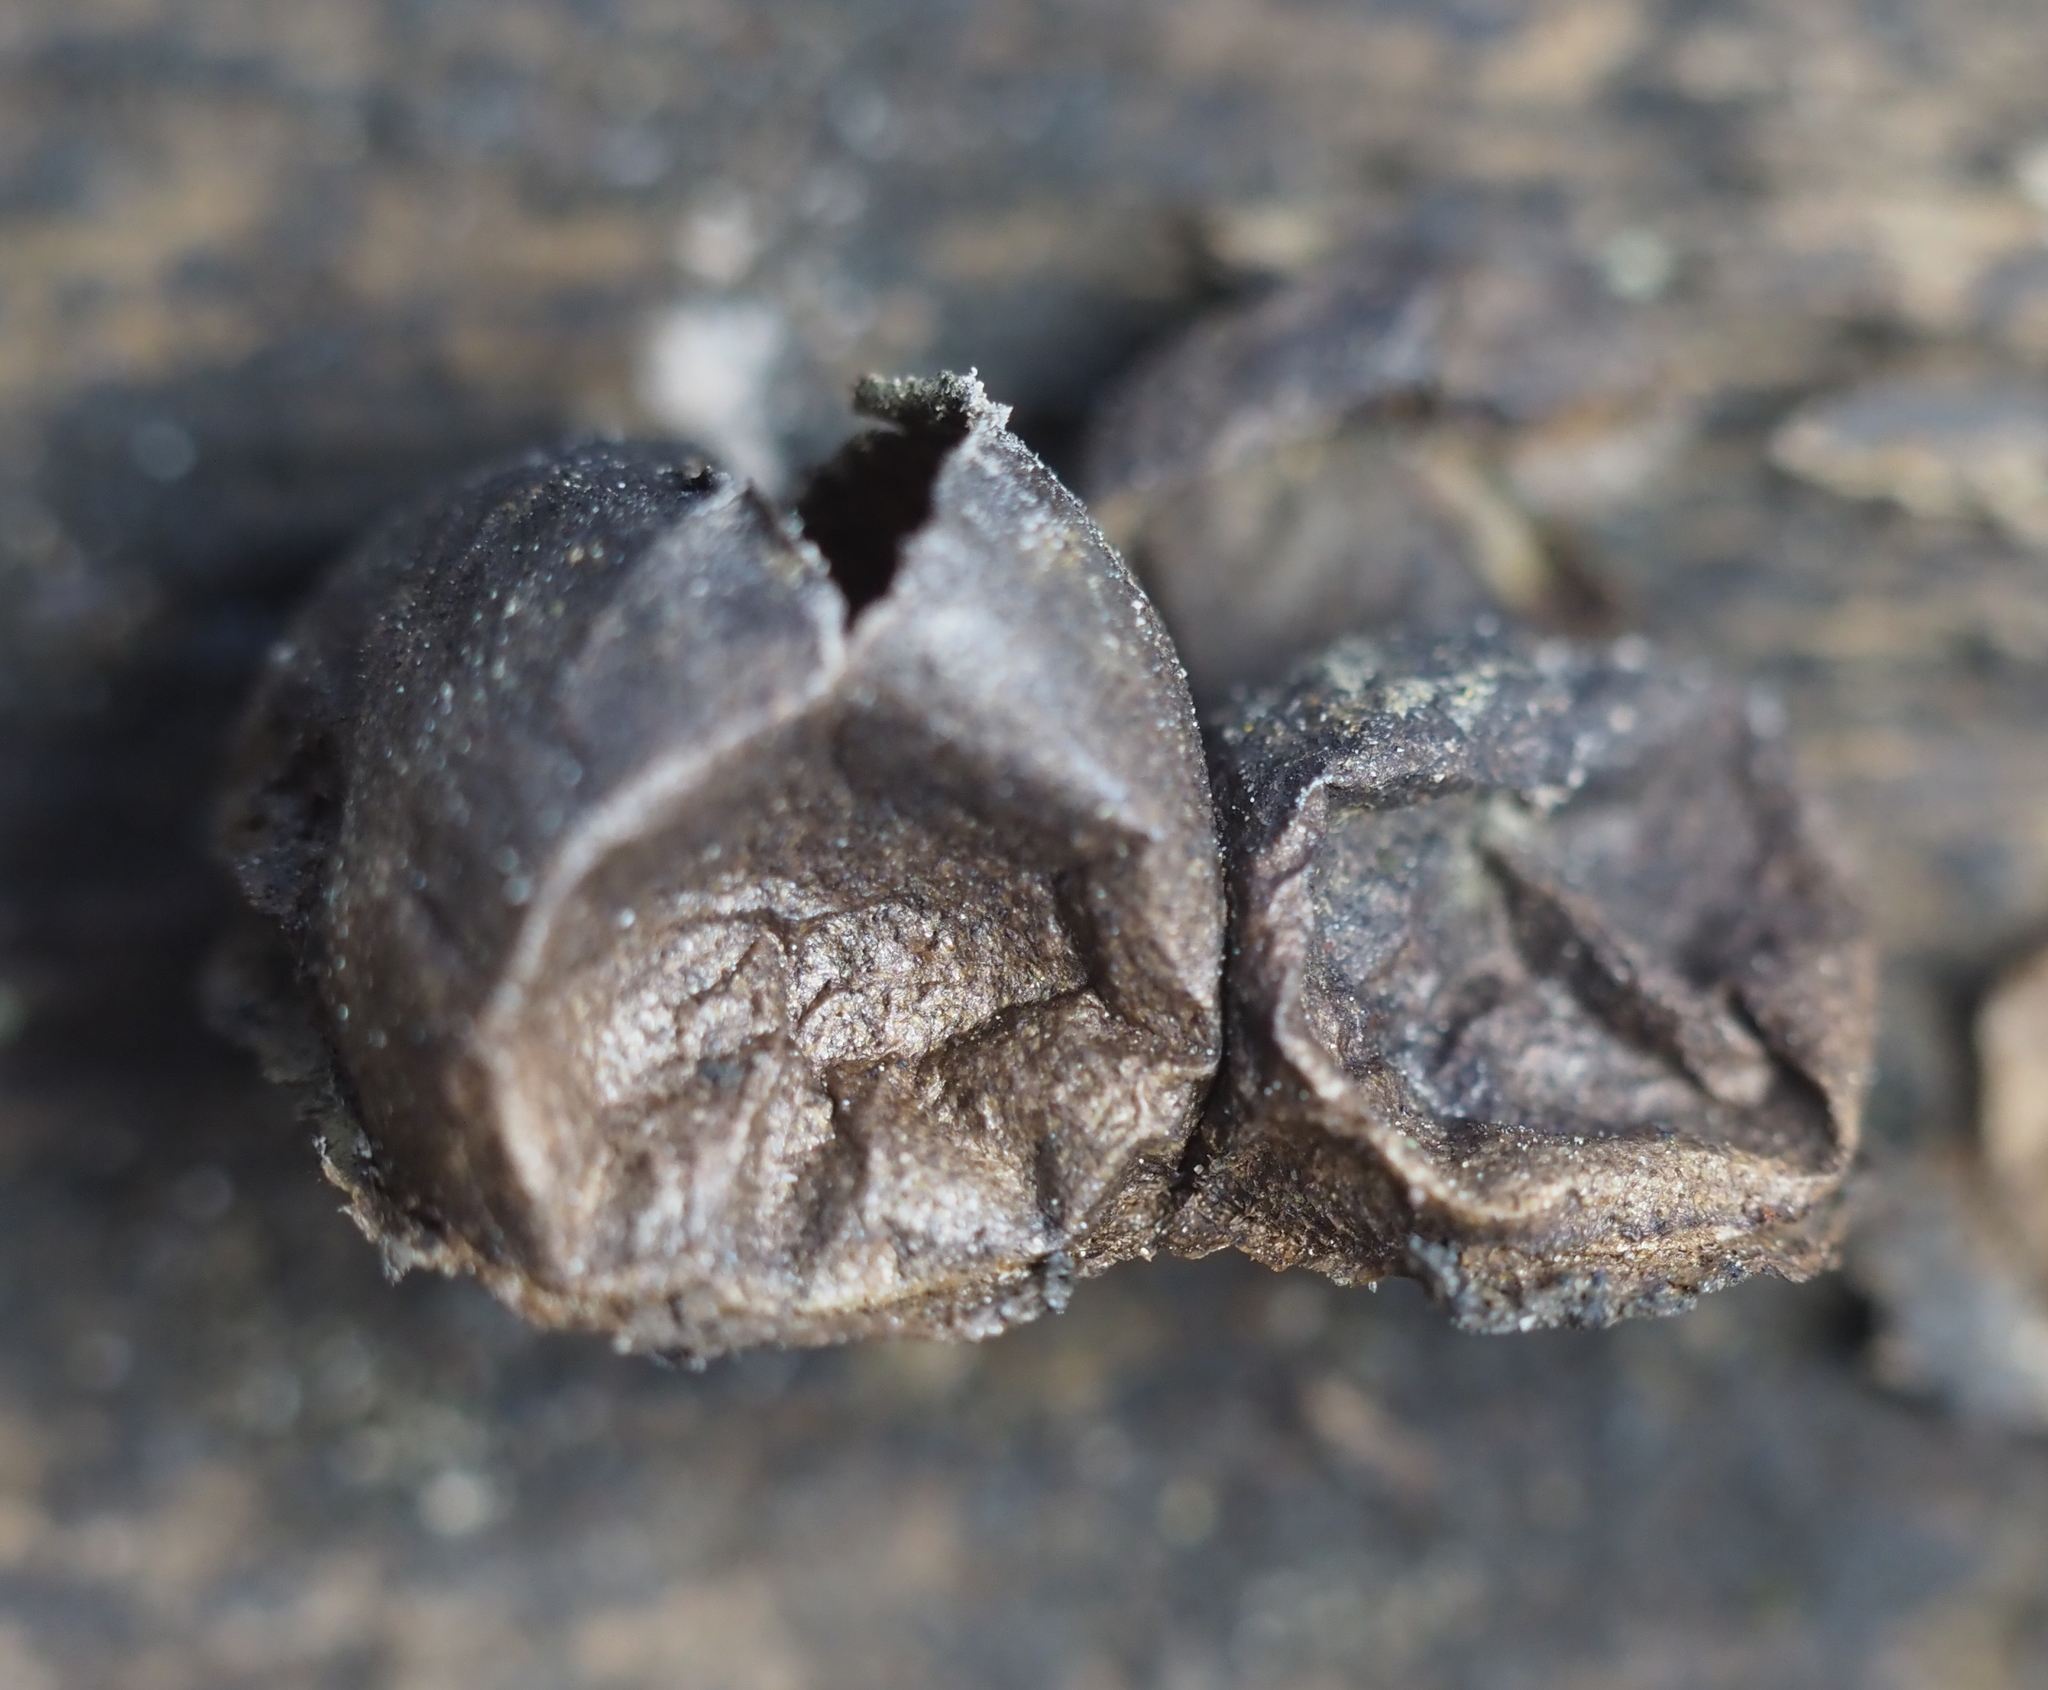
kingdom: Protozoa
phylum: Mycetozoa
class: Myxomycetes
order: Cribrariales
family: Tubiferaceae
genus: Lycogala
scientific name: Lycogala epidendrum
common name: Wolf's milk
